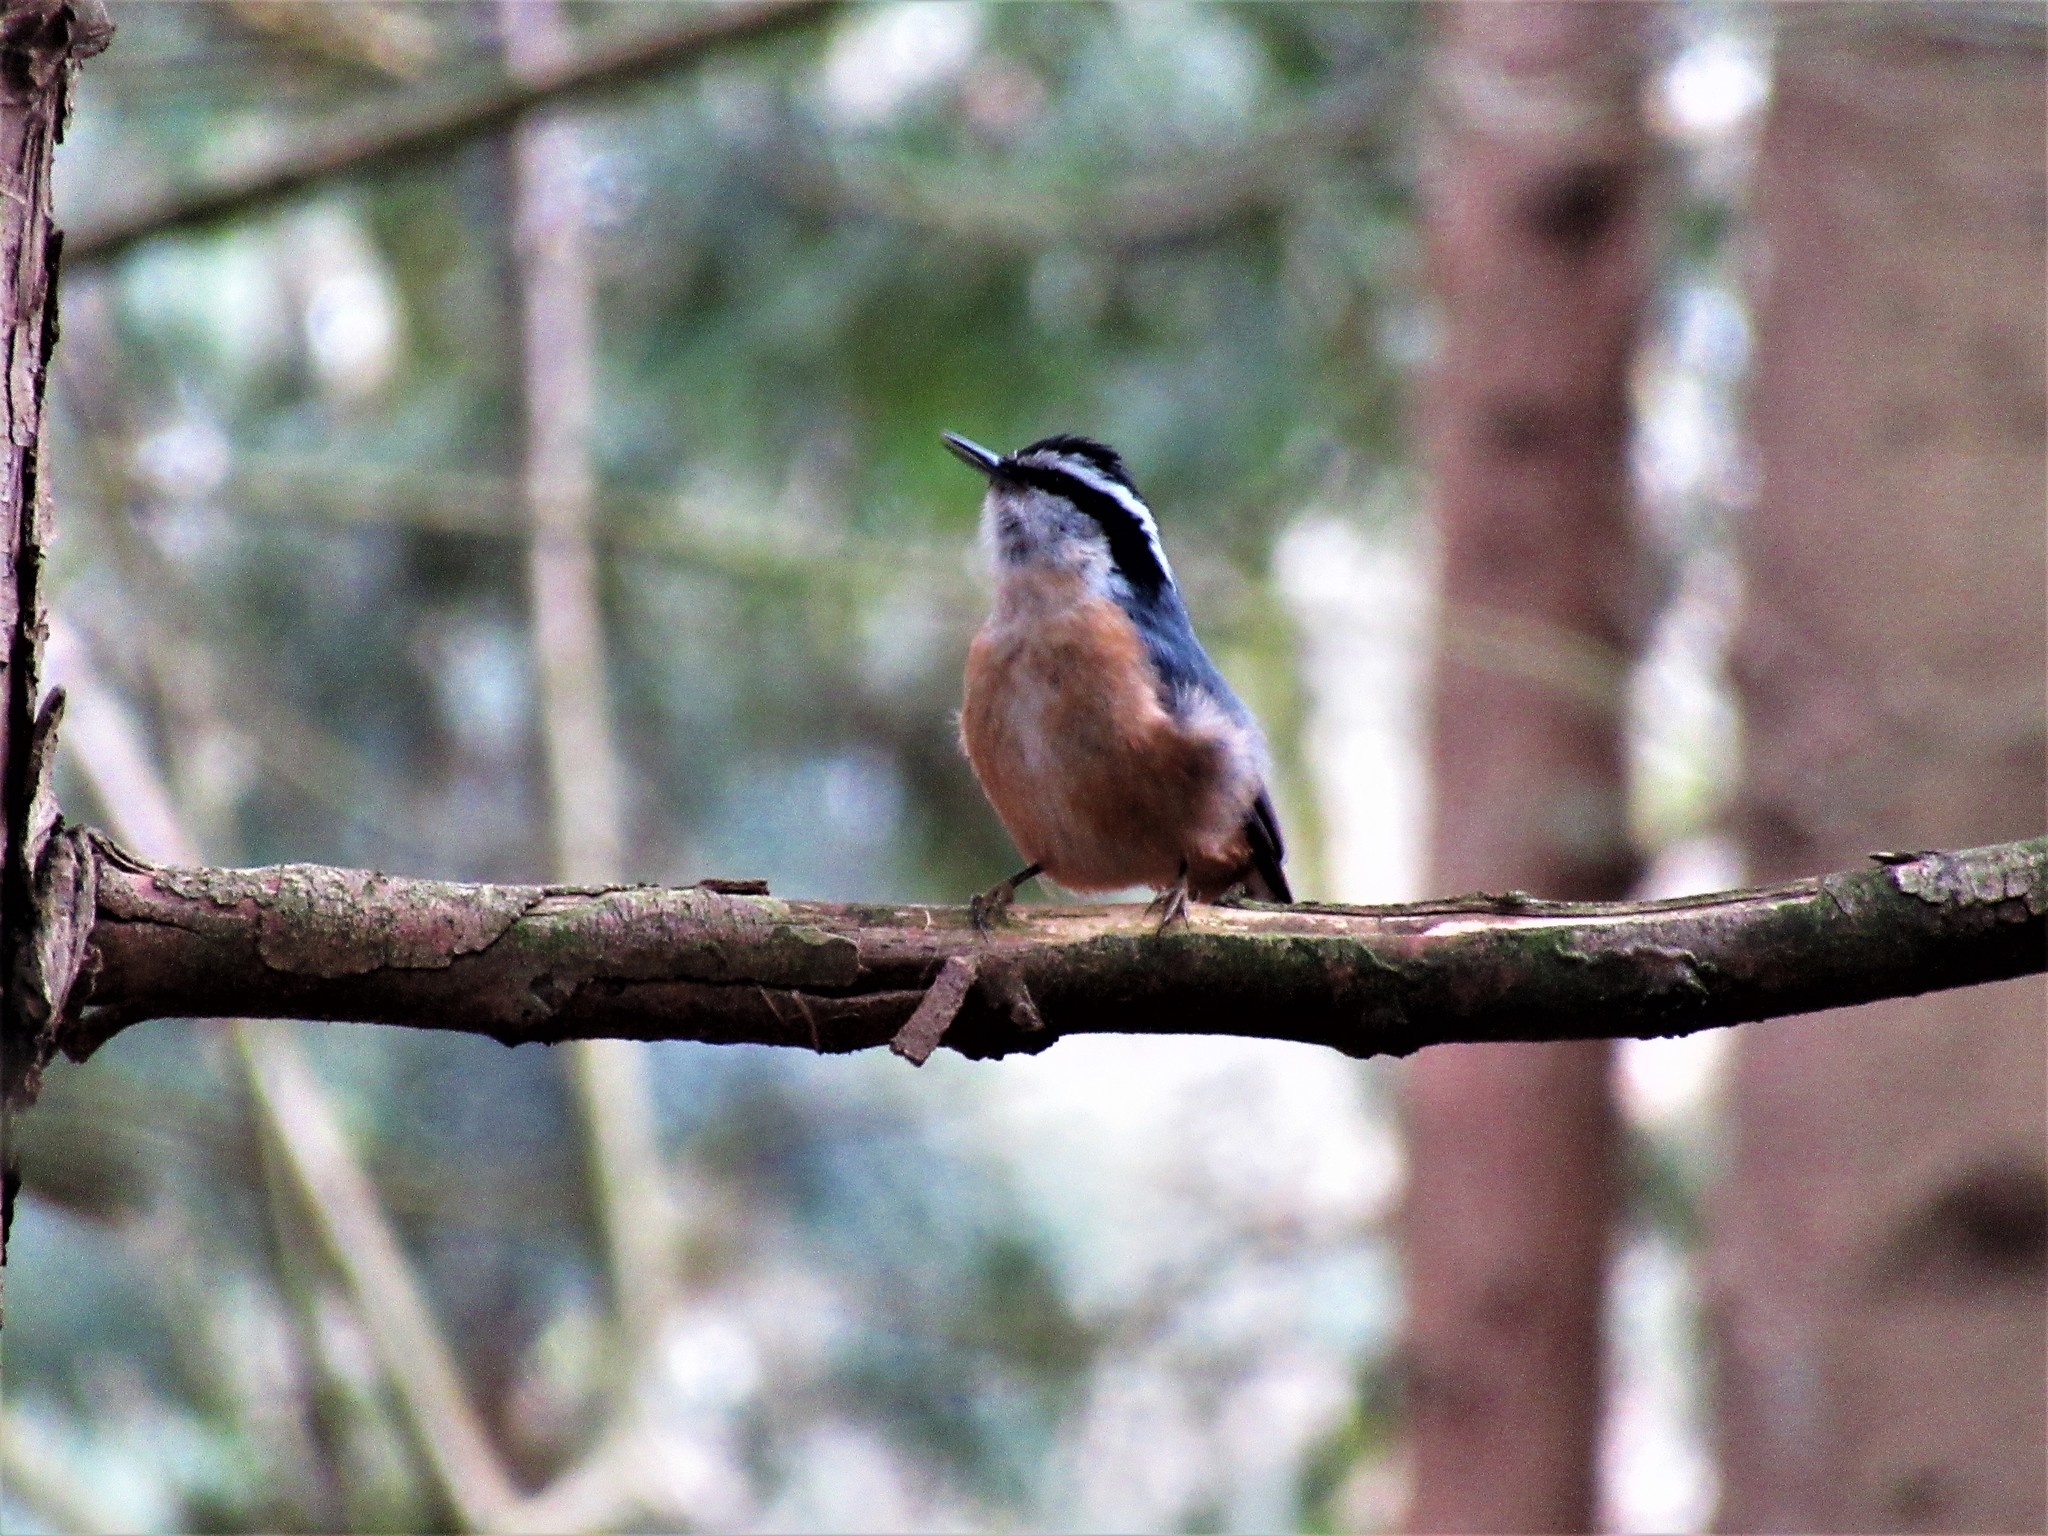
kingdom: Animalia
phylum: Chordata
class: Aves
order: Passeriformes
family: Sittidae
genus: Sitta
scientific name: Sitta canadensis
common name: Red-breasted nuthatch
